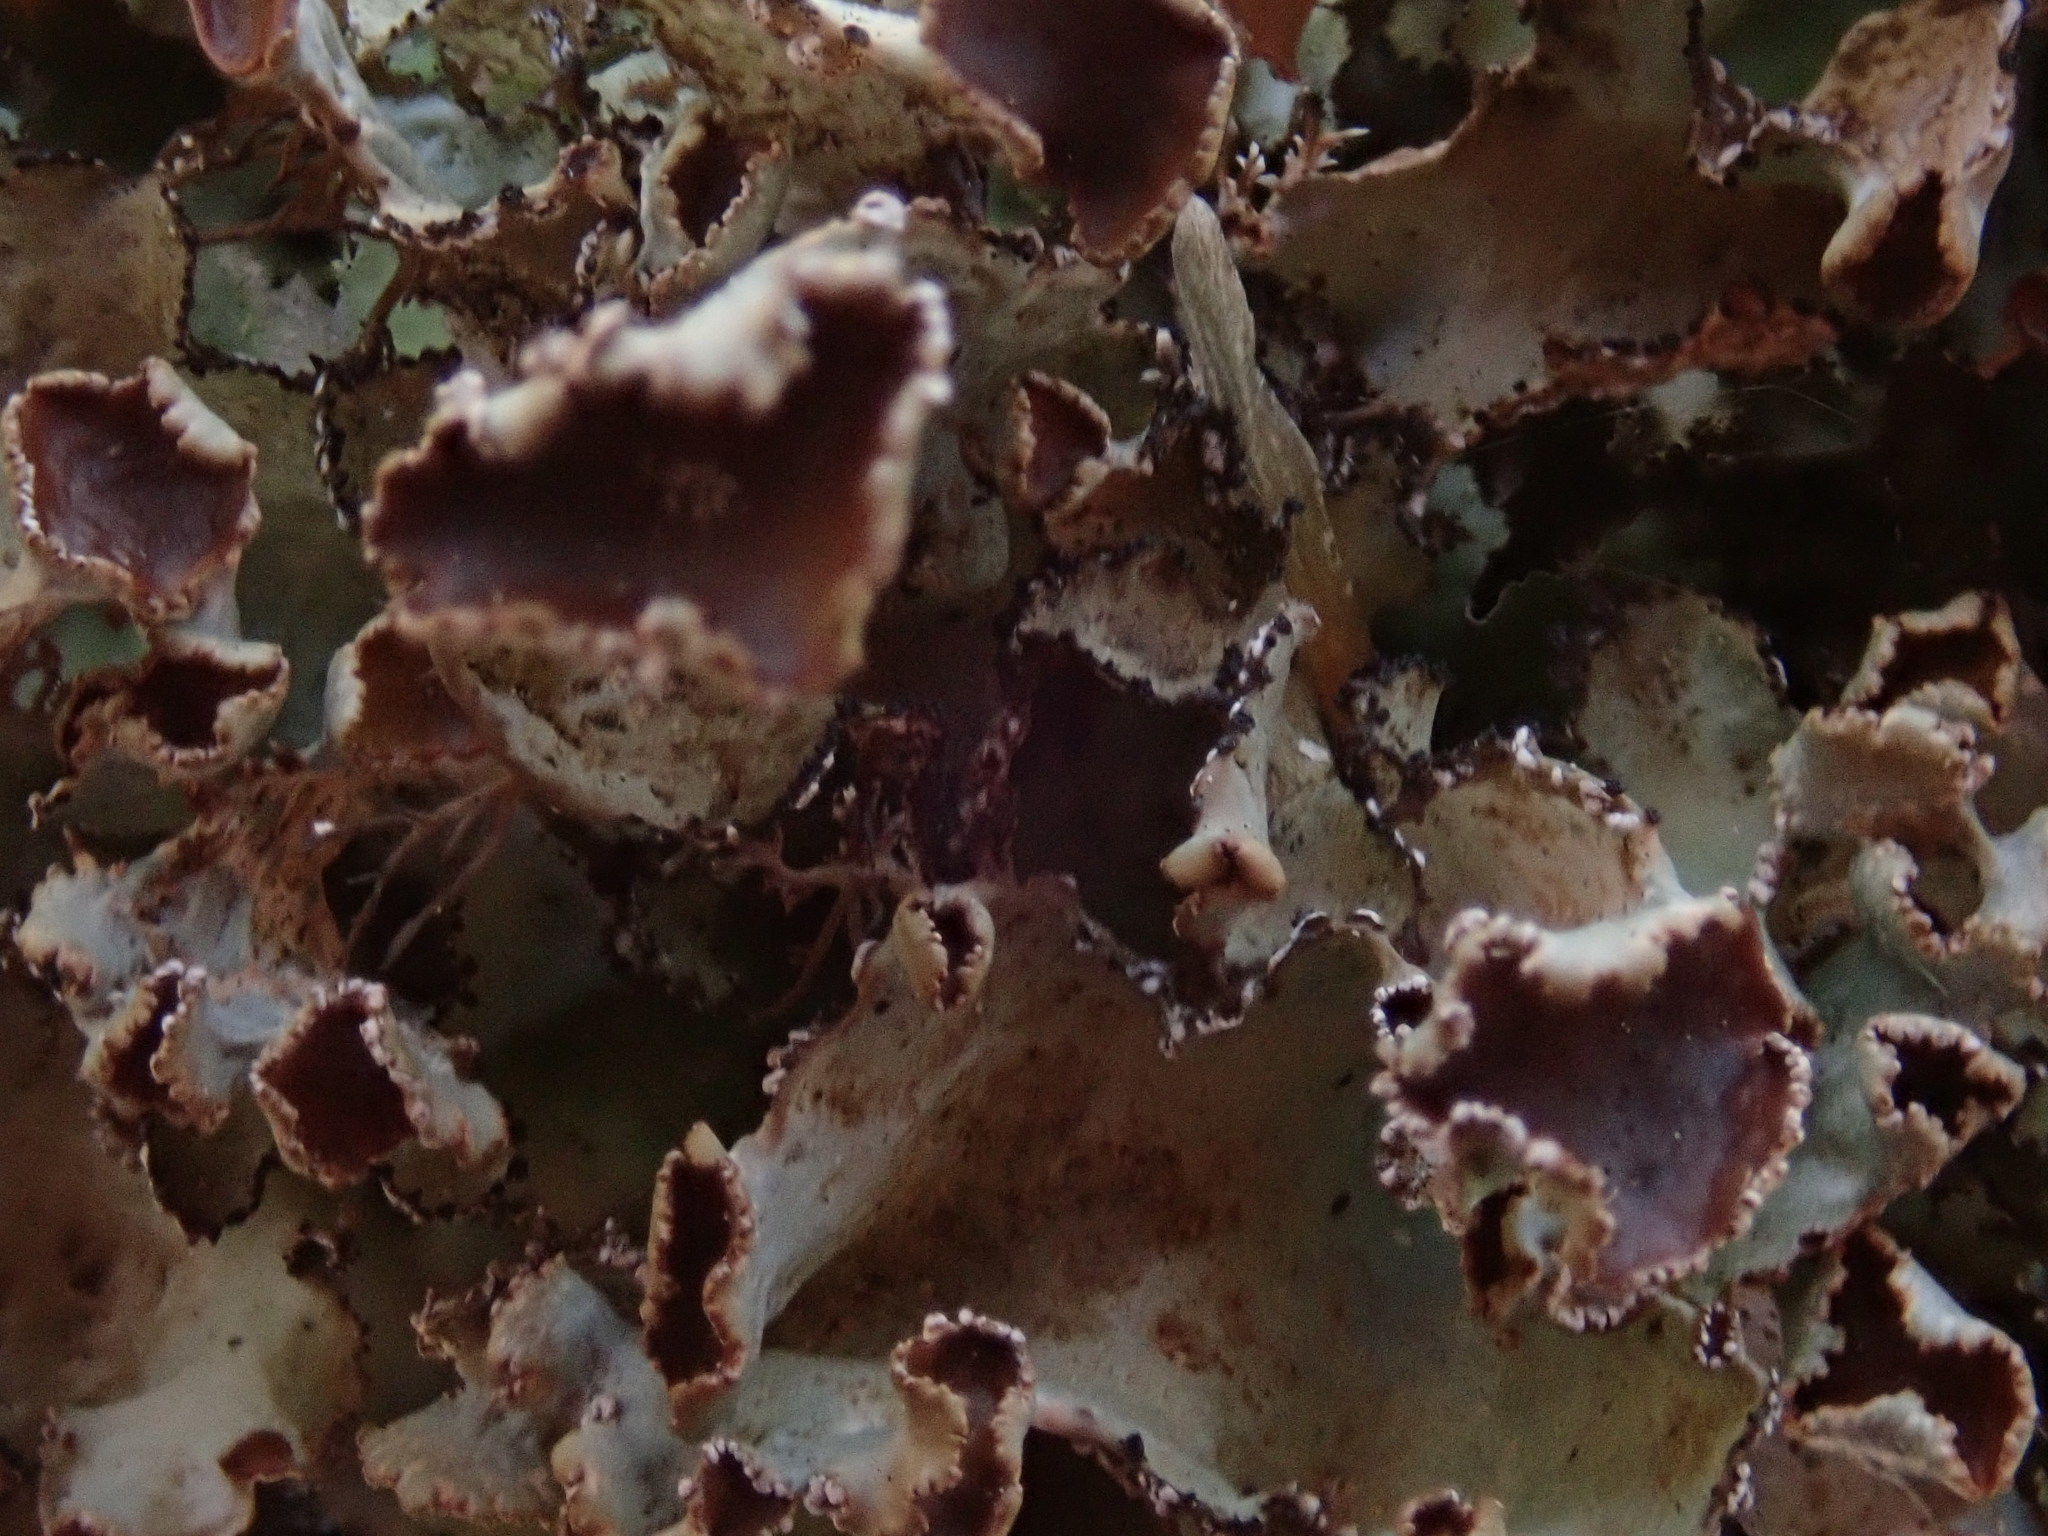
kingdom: Fungi
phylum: Ascomycota
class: Lecanoromycetes
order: Lecanorales
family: Parmeliaceae
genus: Platismatia
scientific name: Platismatia tuckermanii
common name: Crumpled rag lichen
